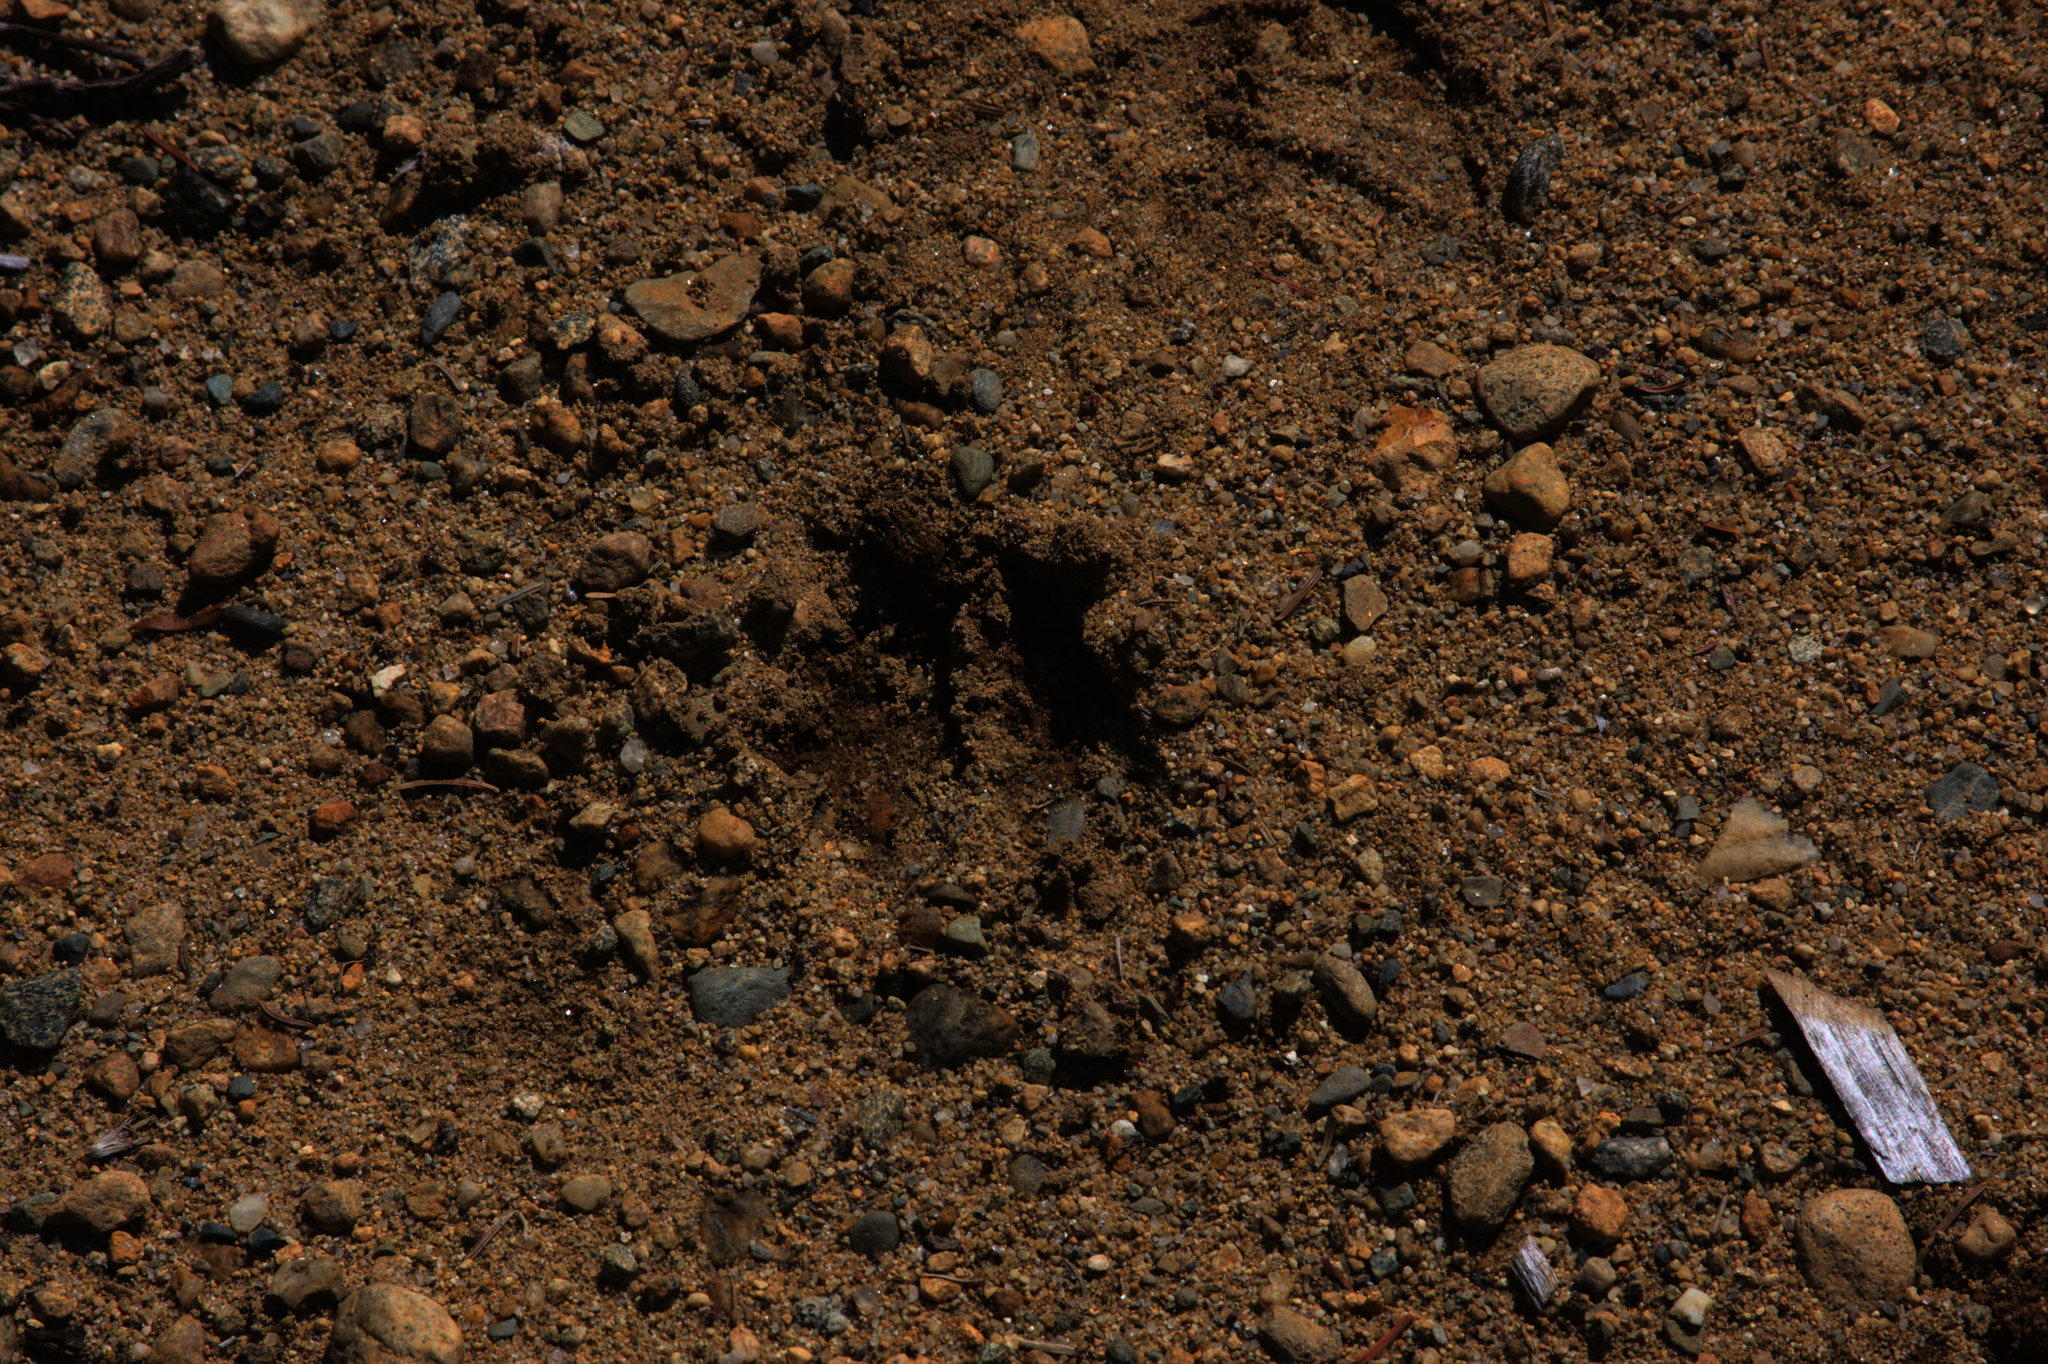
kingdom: Animalia
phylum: Chordata
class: Mammalia
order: Artiodactyla
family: Cervidae
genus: Odocoileus
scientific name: Odocoileus virginianus
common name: White-tailed deer
